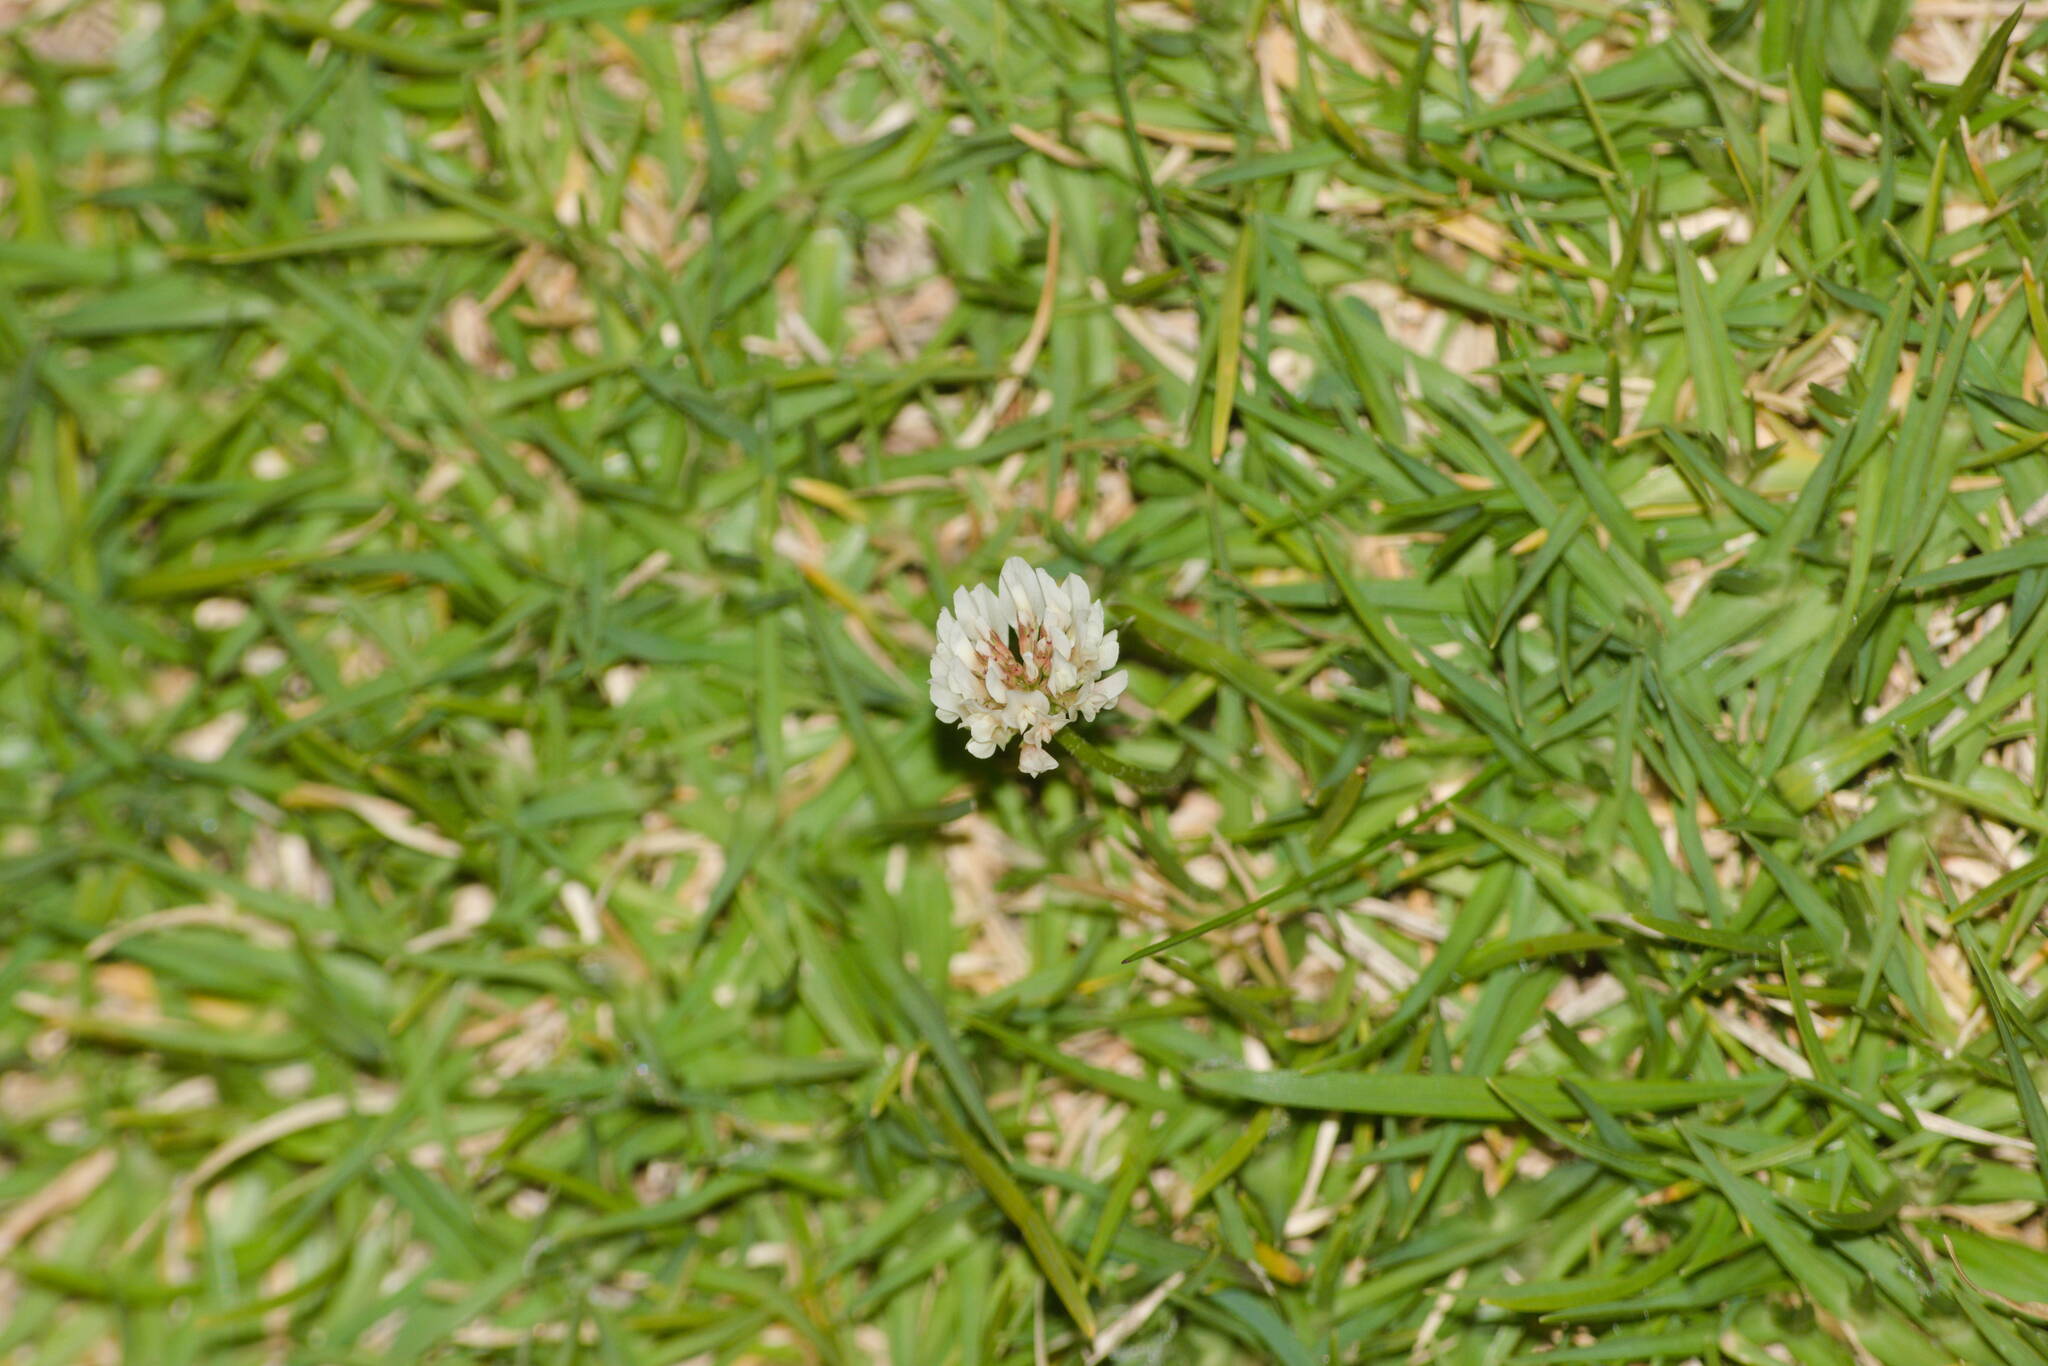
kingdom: Plantae
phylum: Tracheophyta
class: Magnoliopsida
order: Fabales
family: Fabaceae
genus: Trifolium
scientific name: Trifolium repens
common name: White clover
